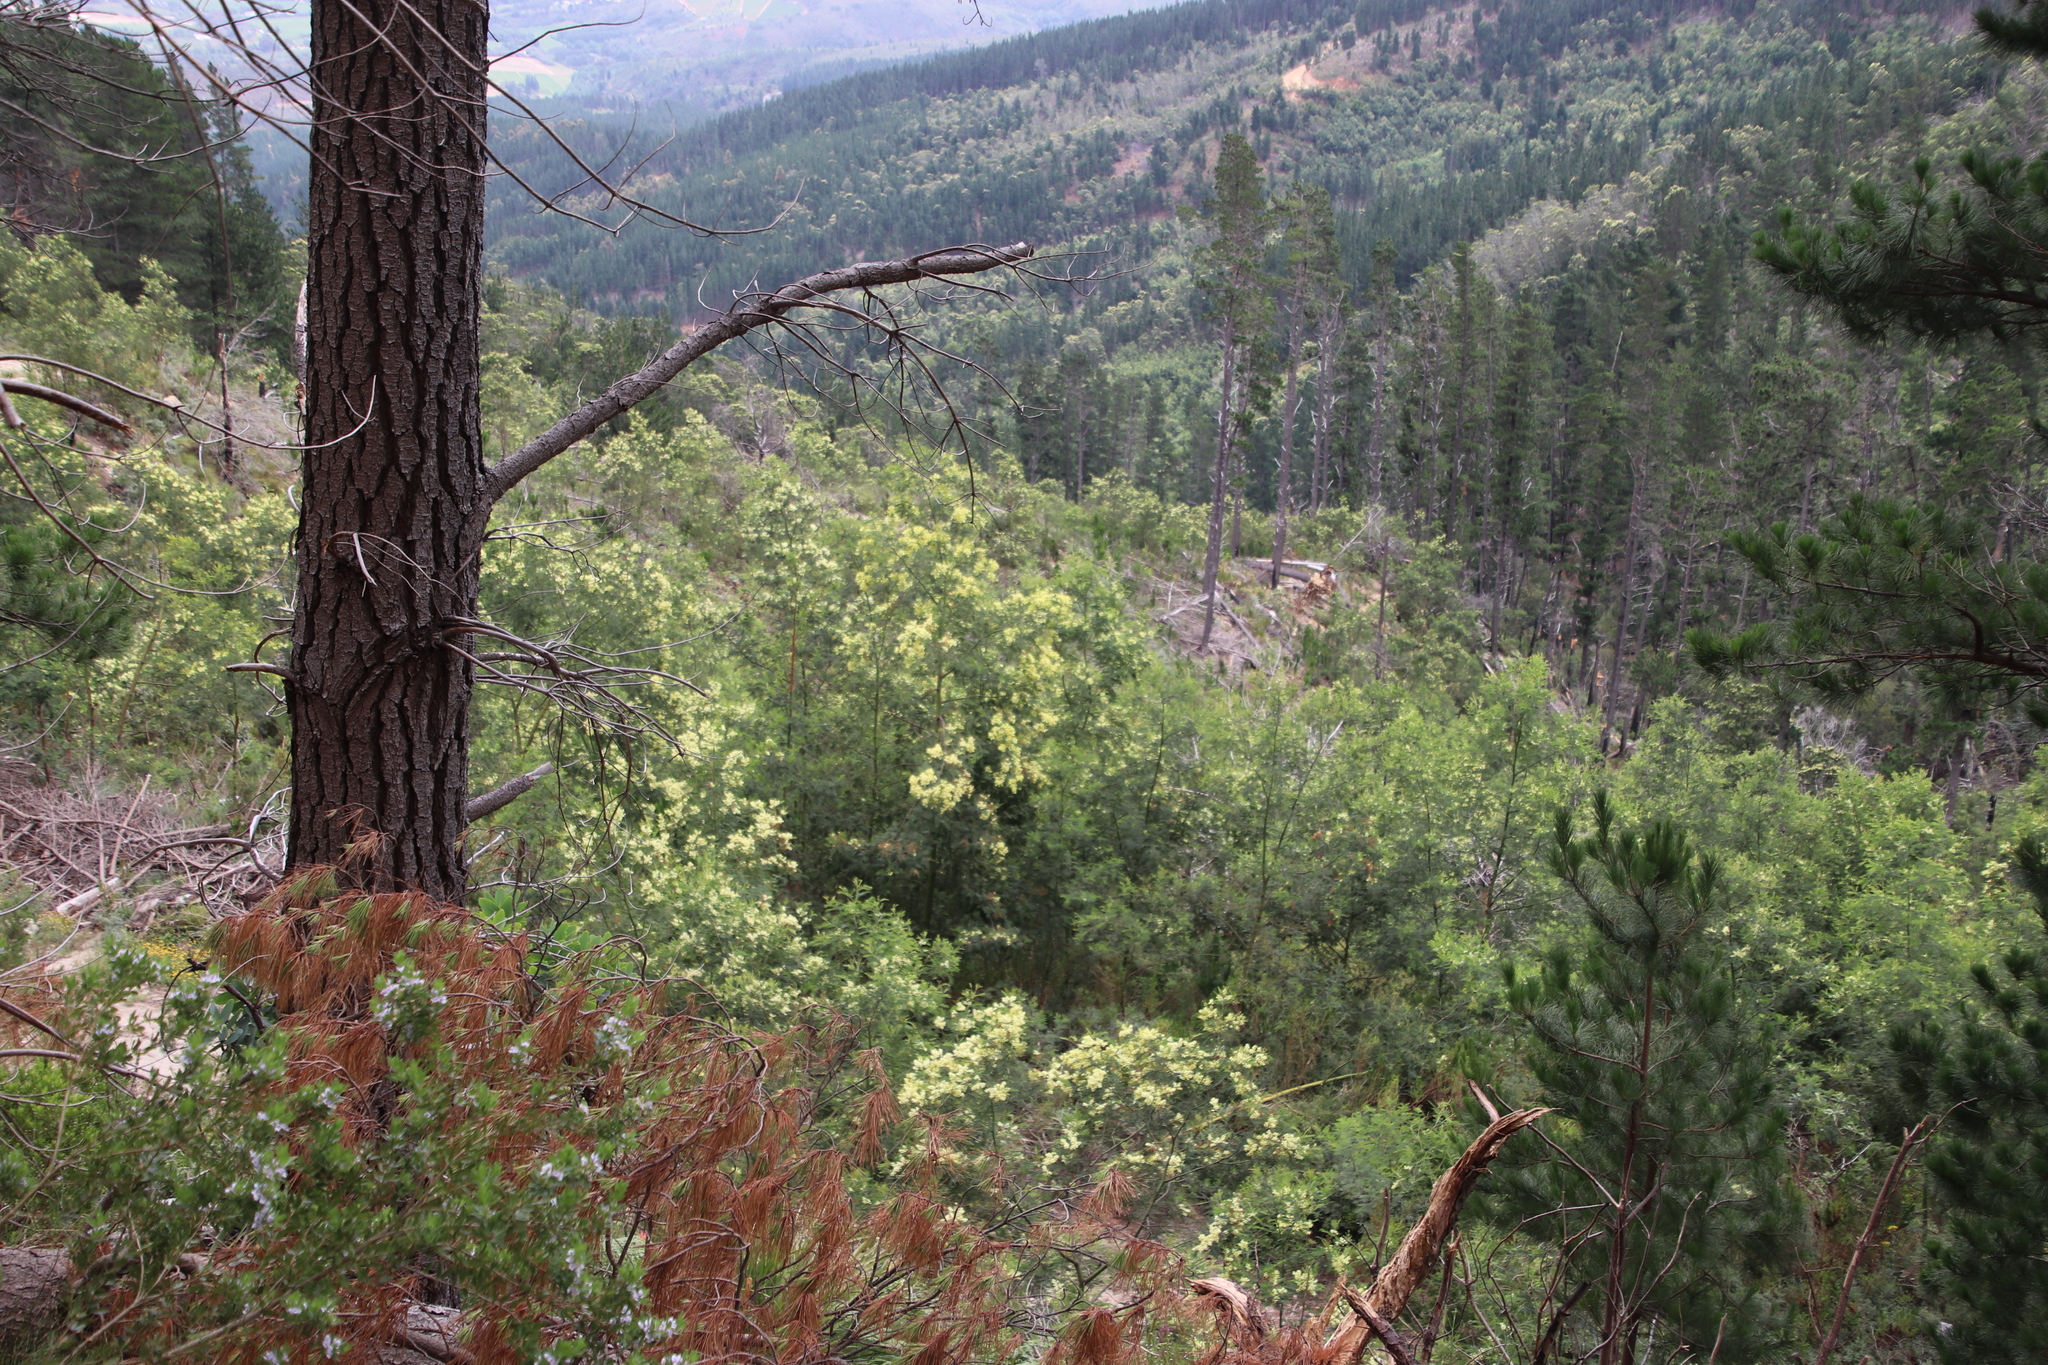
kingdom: Plantae
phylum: Tracheophyta
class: Magnoliopsida
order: Fabales
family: Fabaceae
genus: Acacia
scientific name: Acacia mearnsii
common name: Black wattle
